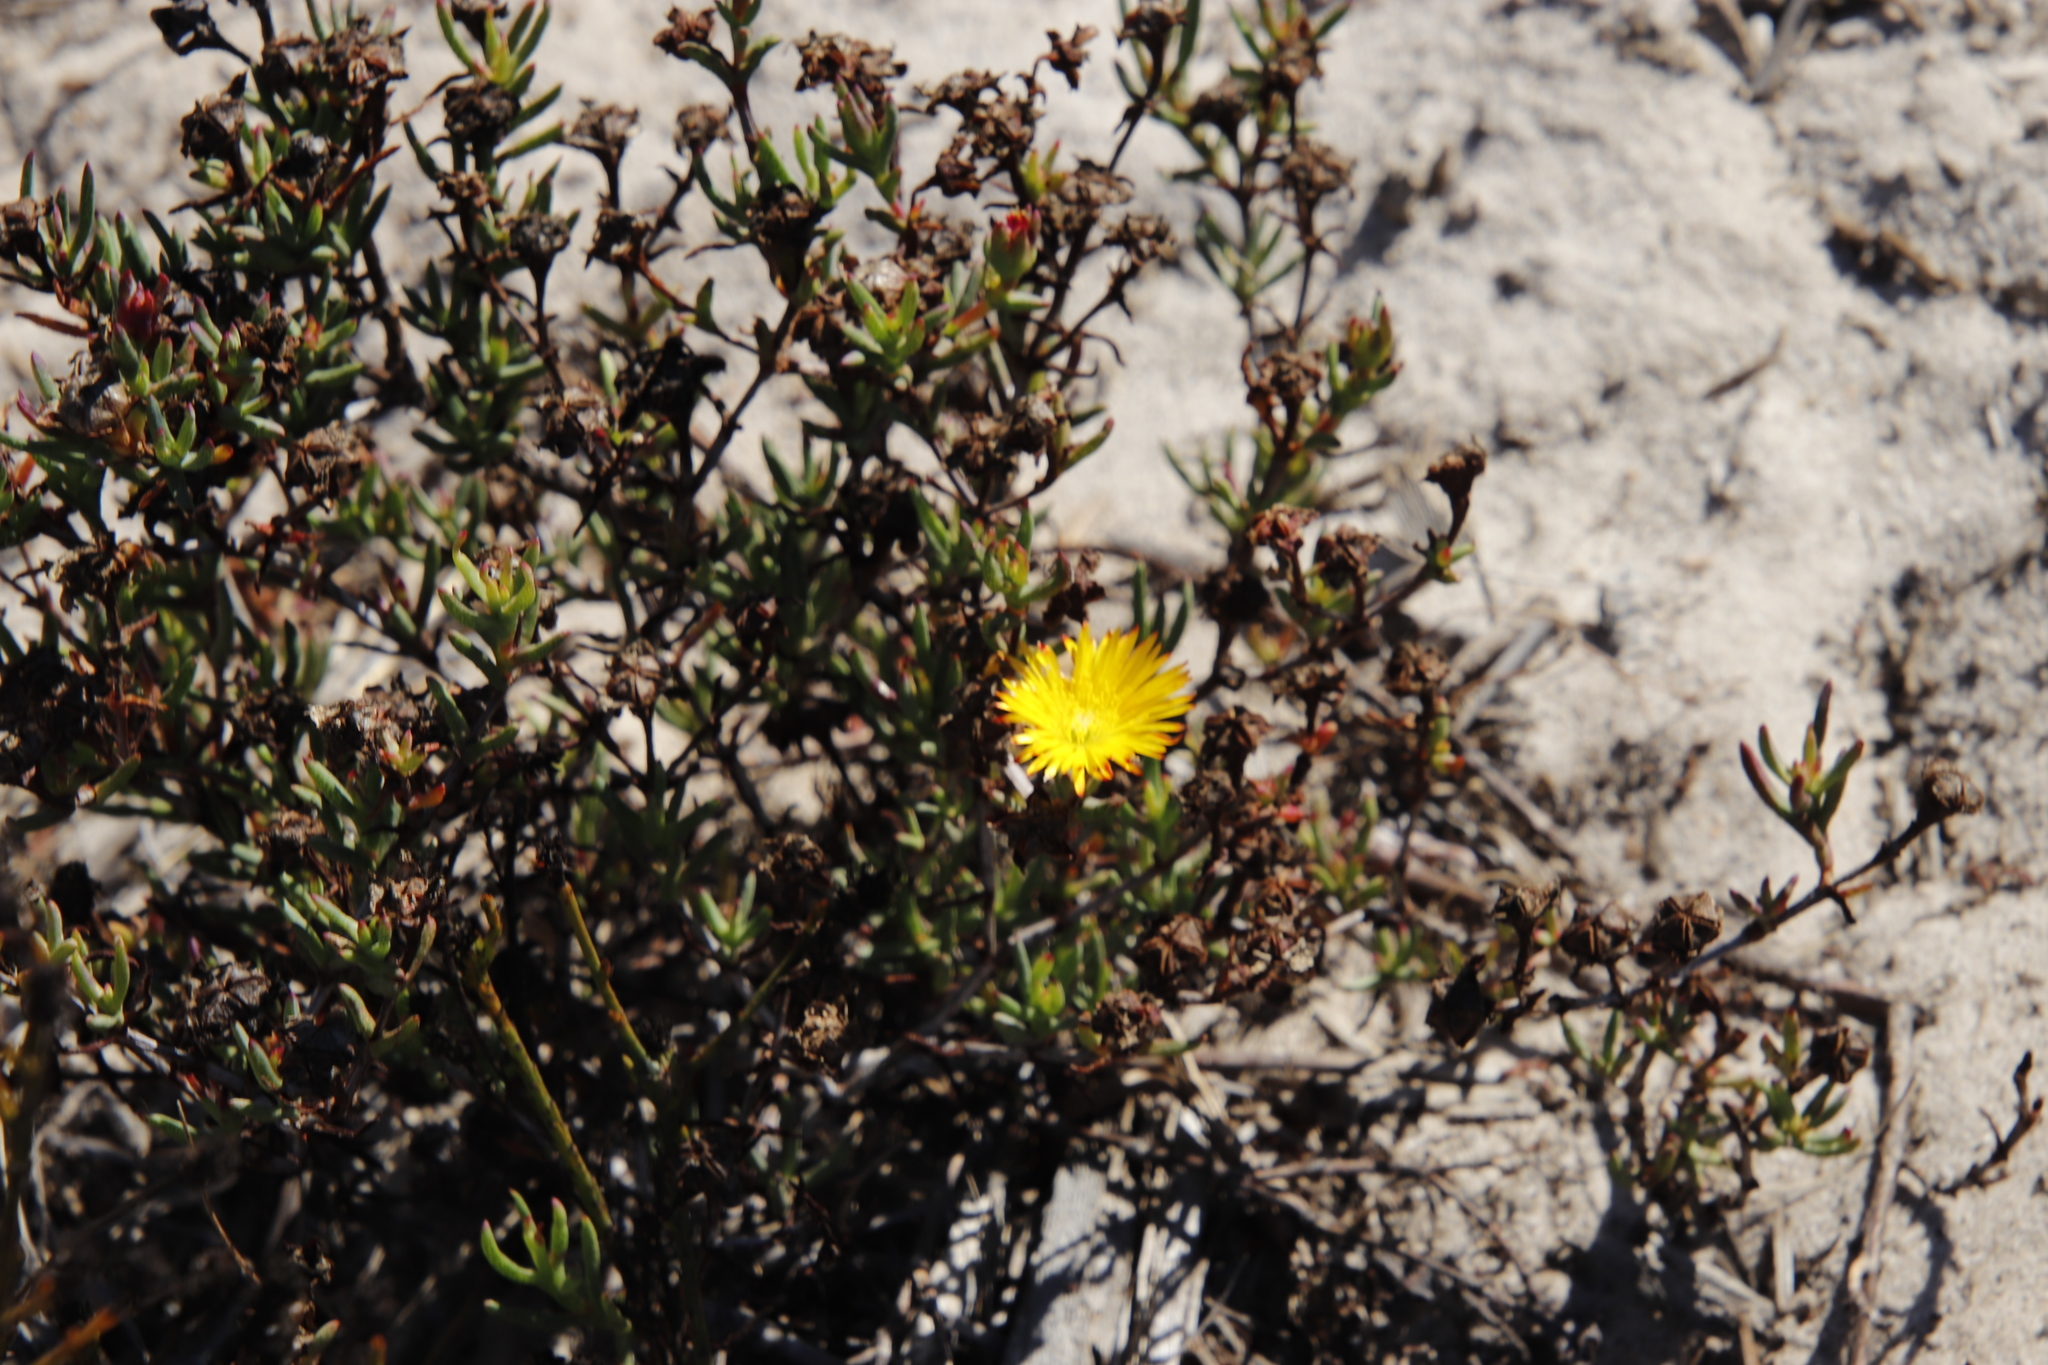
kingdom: Plantae
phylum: Tracheophyta
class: Magnoliopsida
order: Caryophyllales
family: Aizoaceae
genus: Lampranthus
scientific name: Lampranthus bicolor
